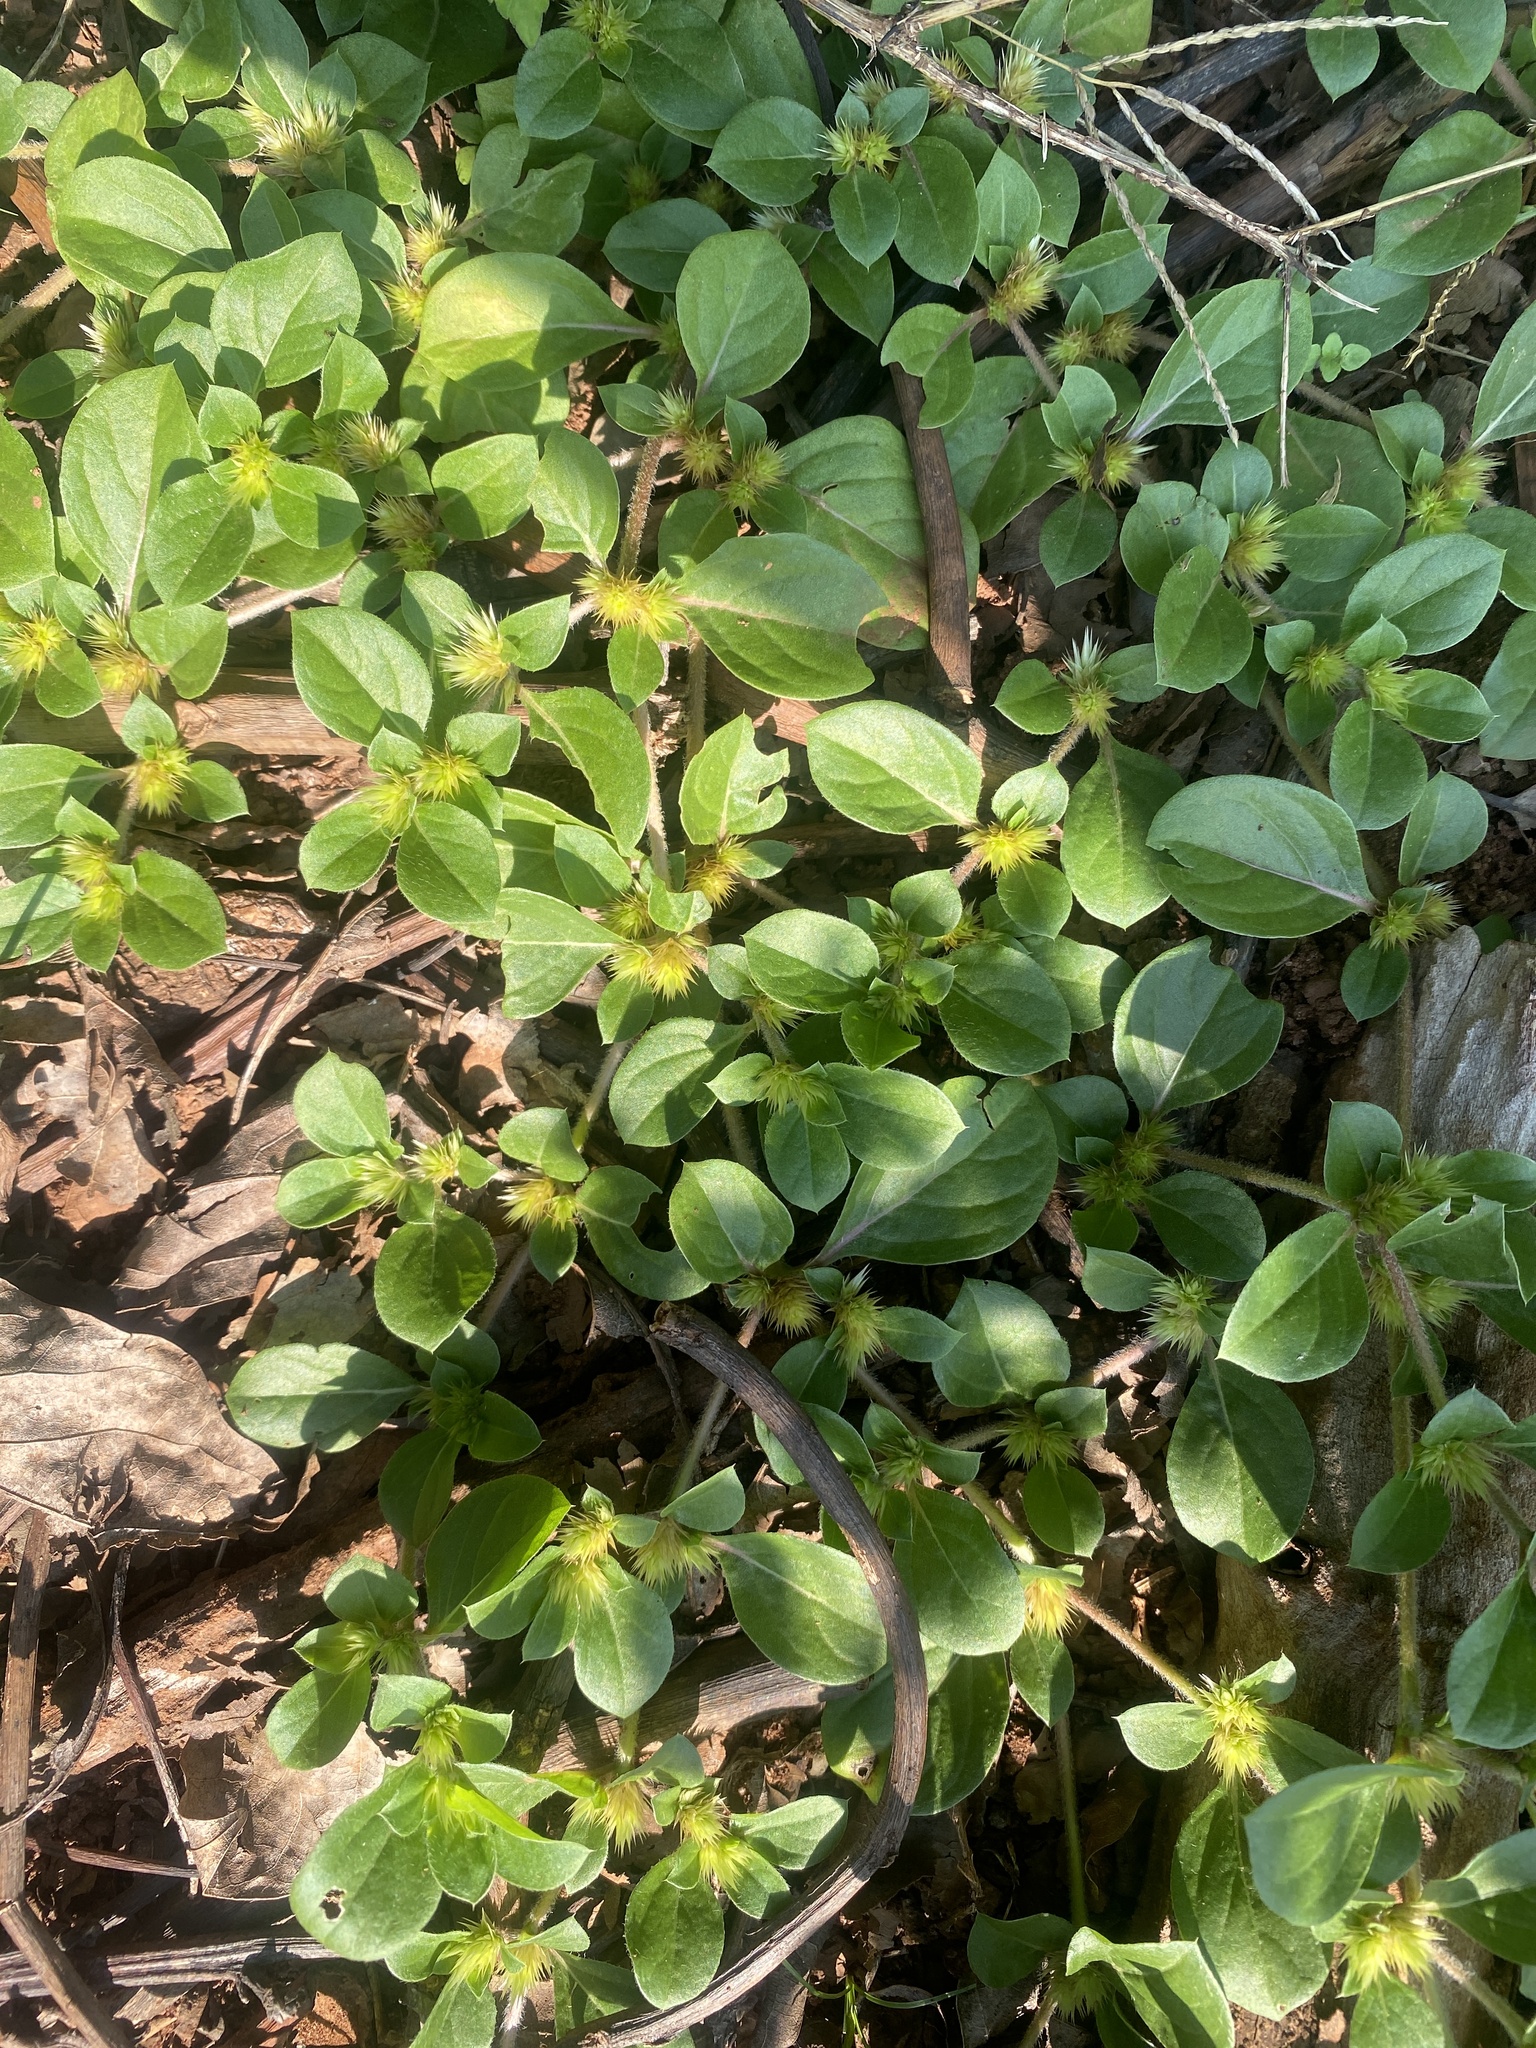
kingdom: Plantae
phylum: Tracheophyta
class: Magnoliopsida
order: Caryophyllales
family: Amaranthaceae
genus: Alternanthera
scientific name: Alternanthera pungens
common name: Khakiweed
